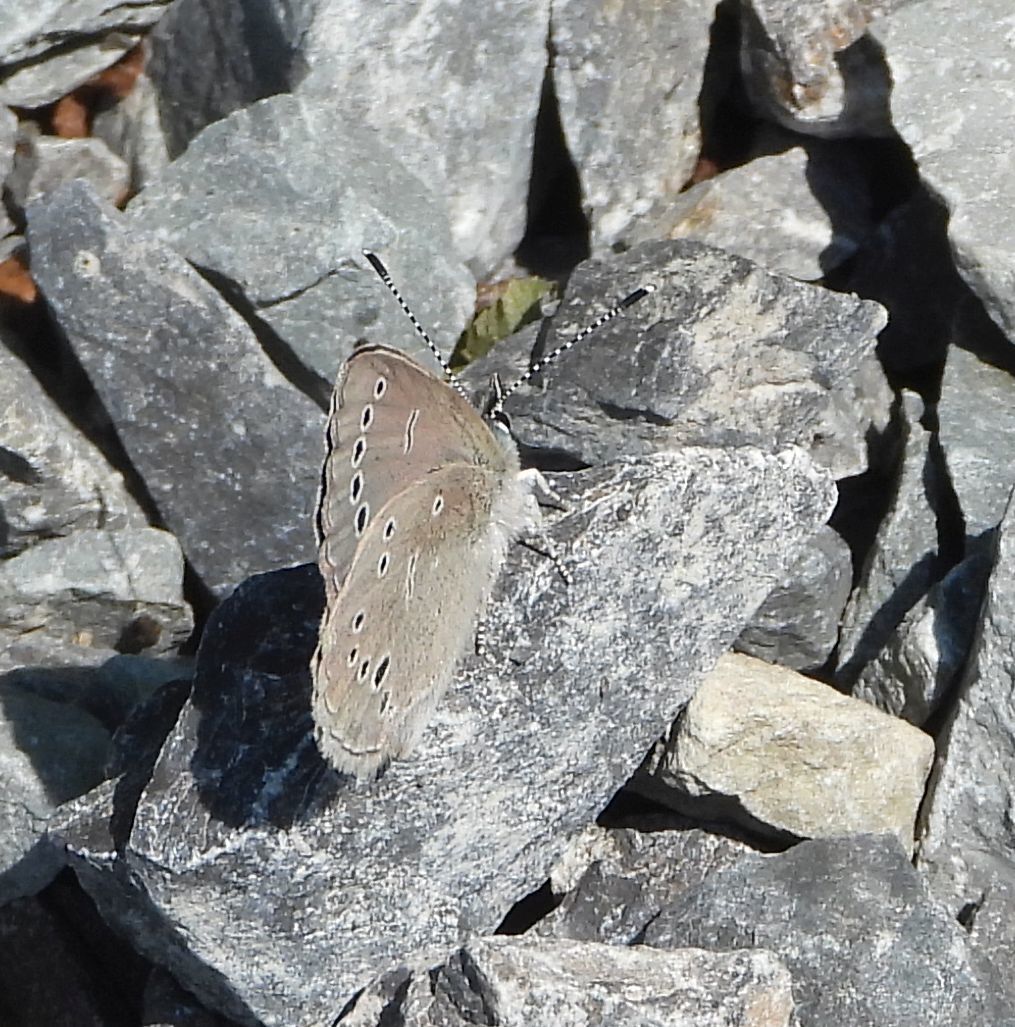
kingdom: Animalia
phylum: Arthropoda
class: Insecta
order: Lepidoptera
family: Lycaenidae
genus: Glaucopsyche
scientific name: Glaucopsyche lygdamus
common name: Silvery blue
